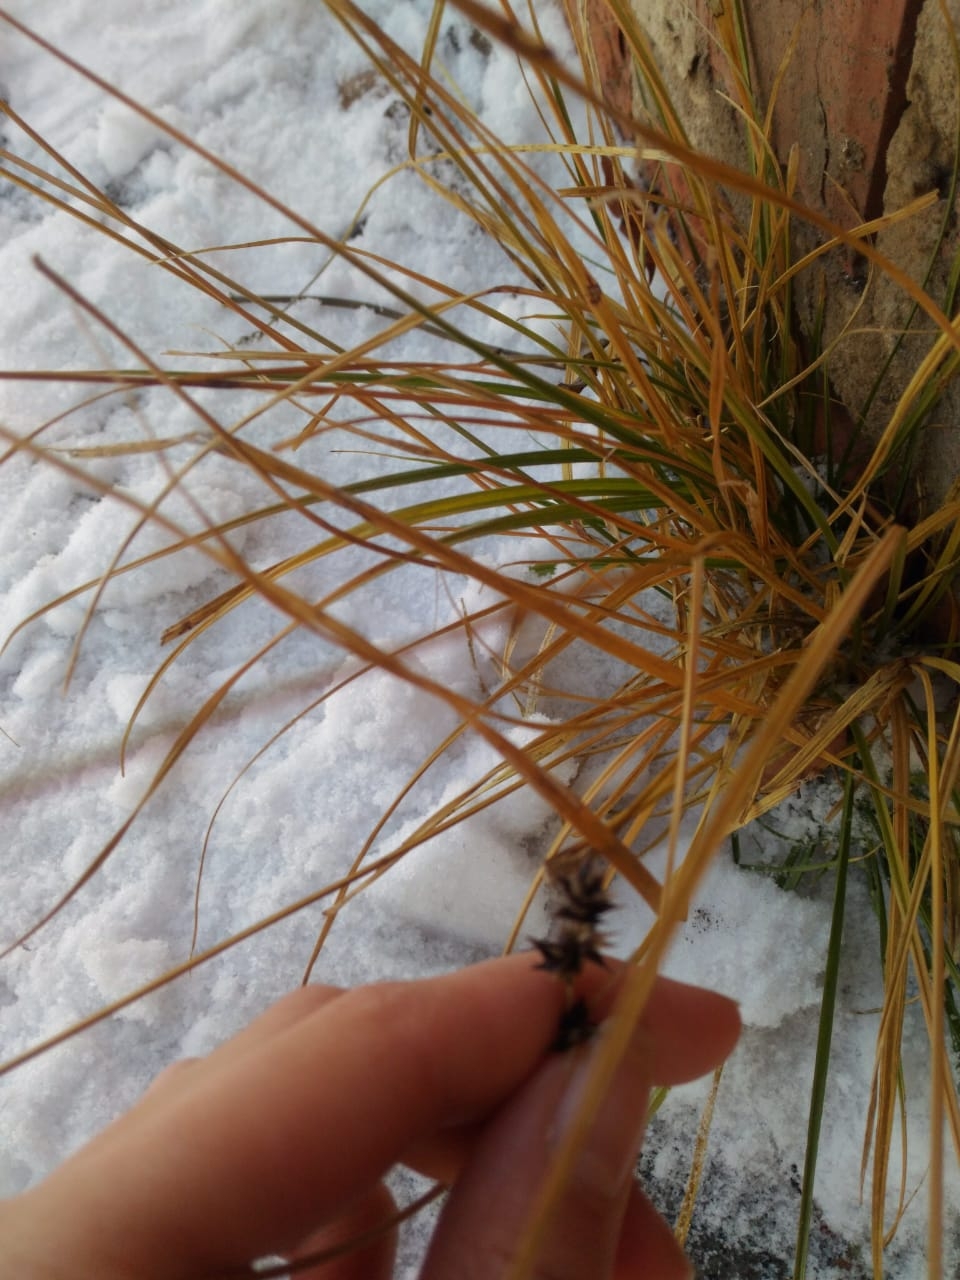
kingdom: Plantae
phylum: Tracheophyta
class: Liliopsida
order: Poales
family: Cyperaceae
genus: Carex
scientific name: Carex spicata
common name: Spiked sedge
